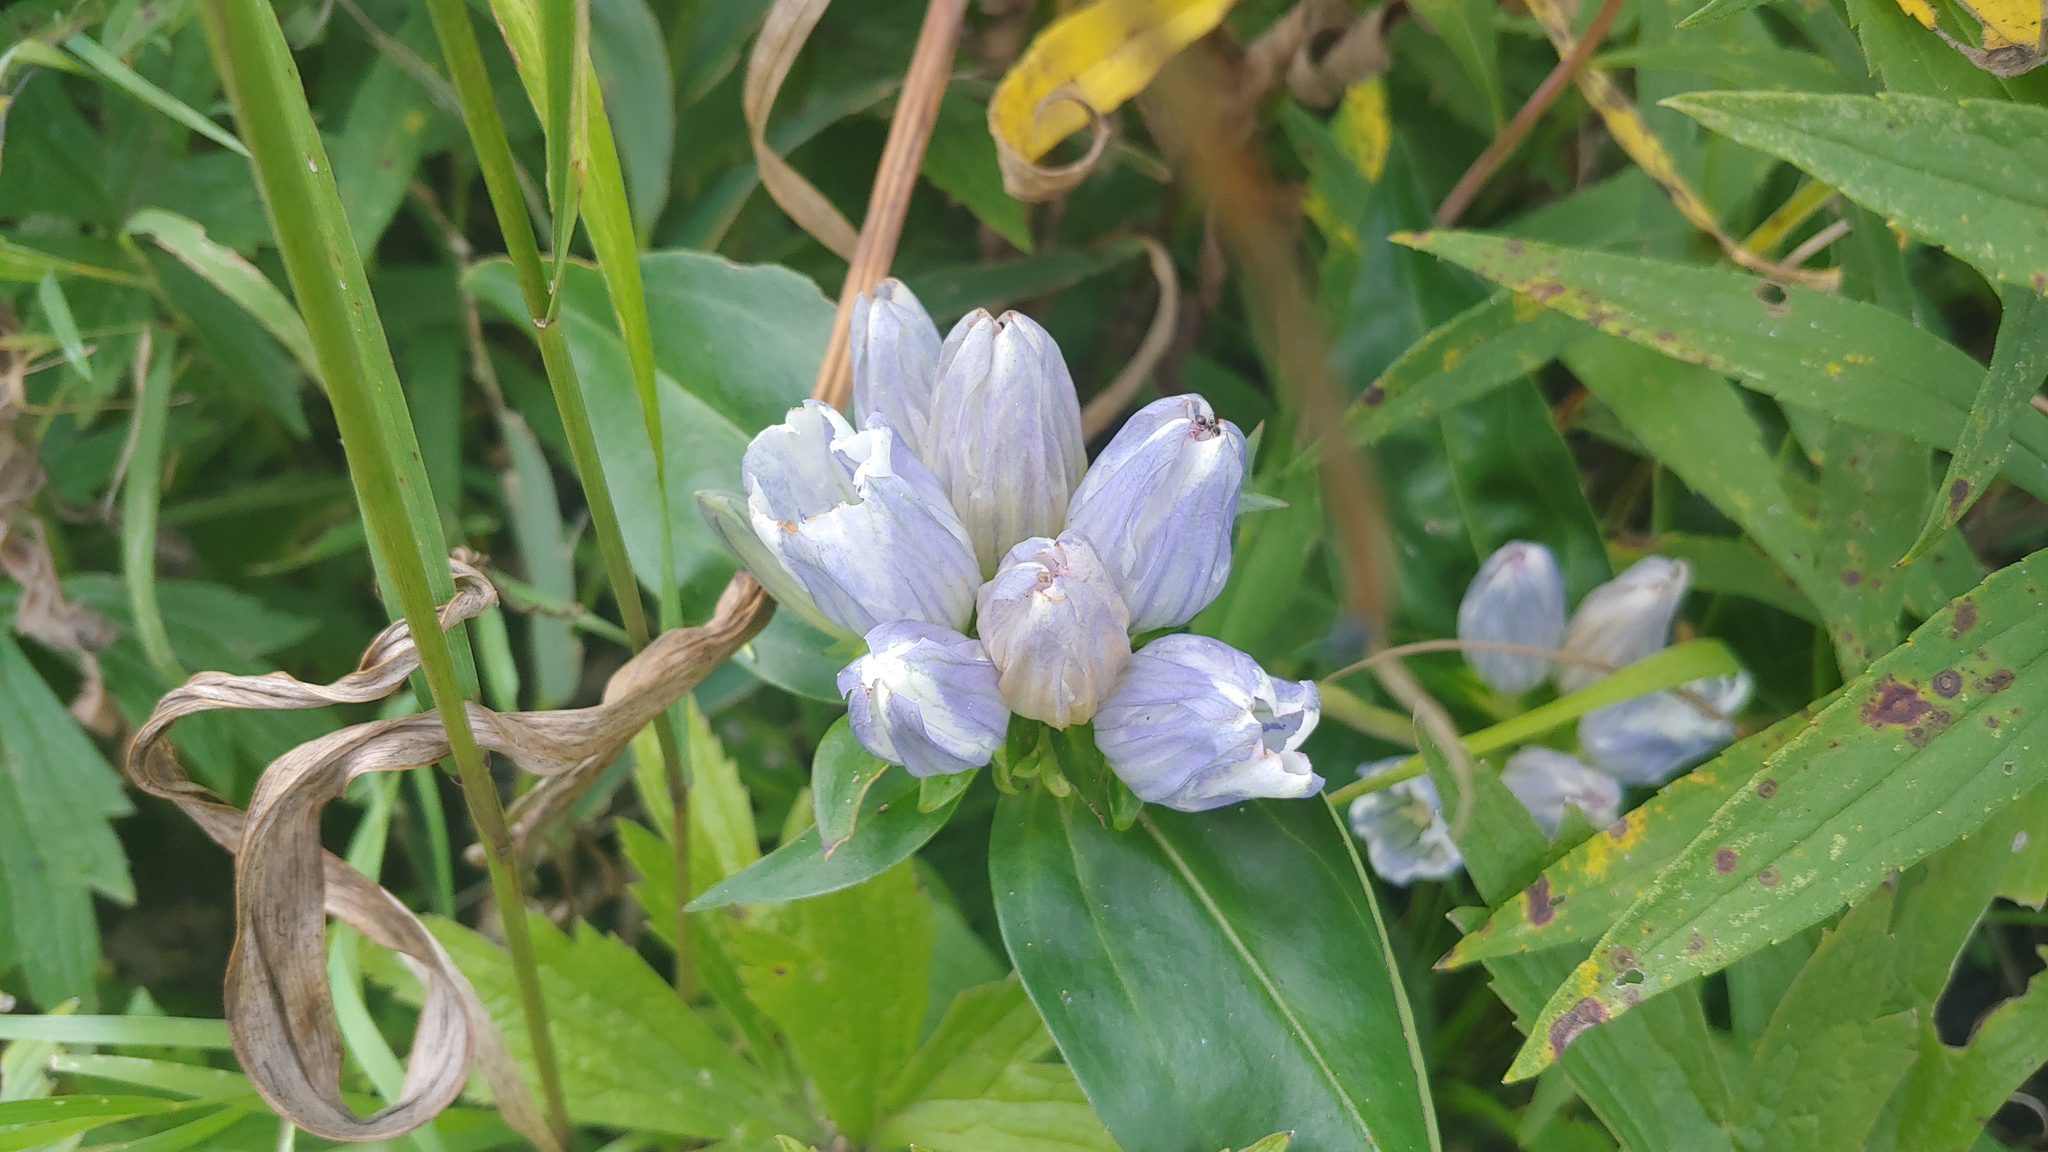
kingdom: Plantae
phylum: Tracheophyta
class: Magnoliopsida
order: Gentianales
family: Gentianaceae
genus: Gentiana
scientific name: Gentiana pallidocyanea
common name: Hybrid bottle gentian
